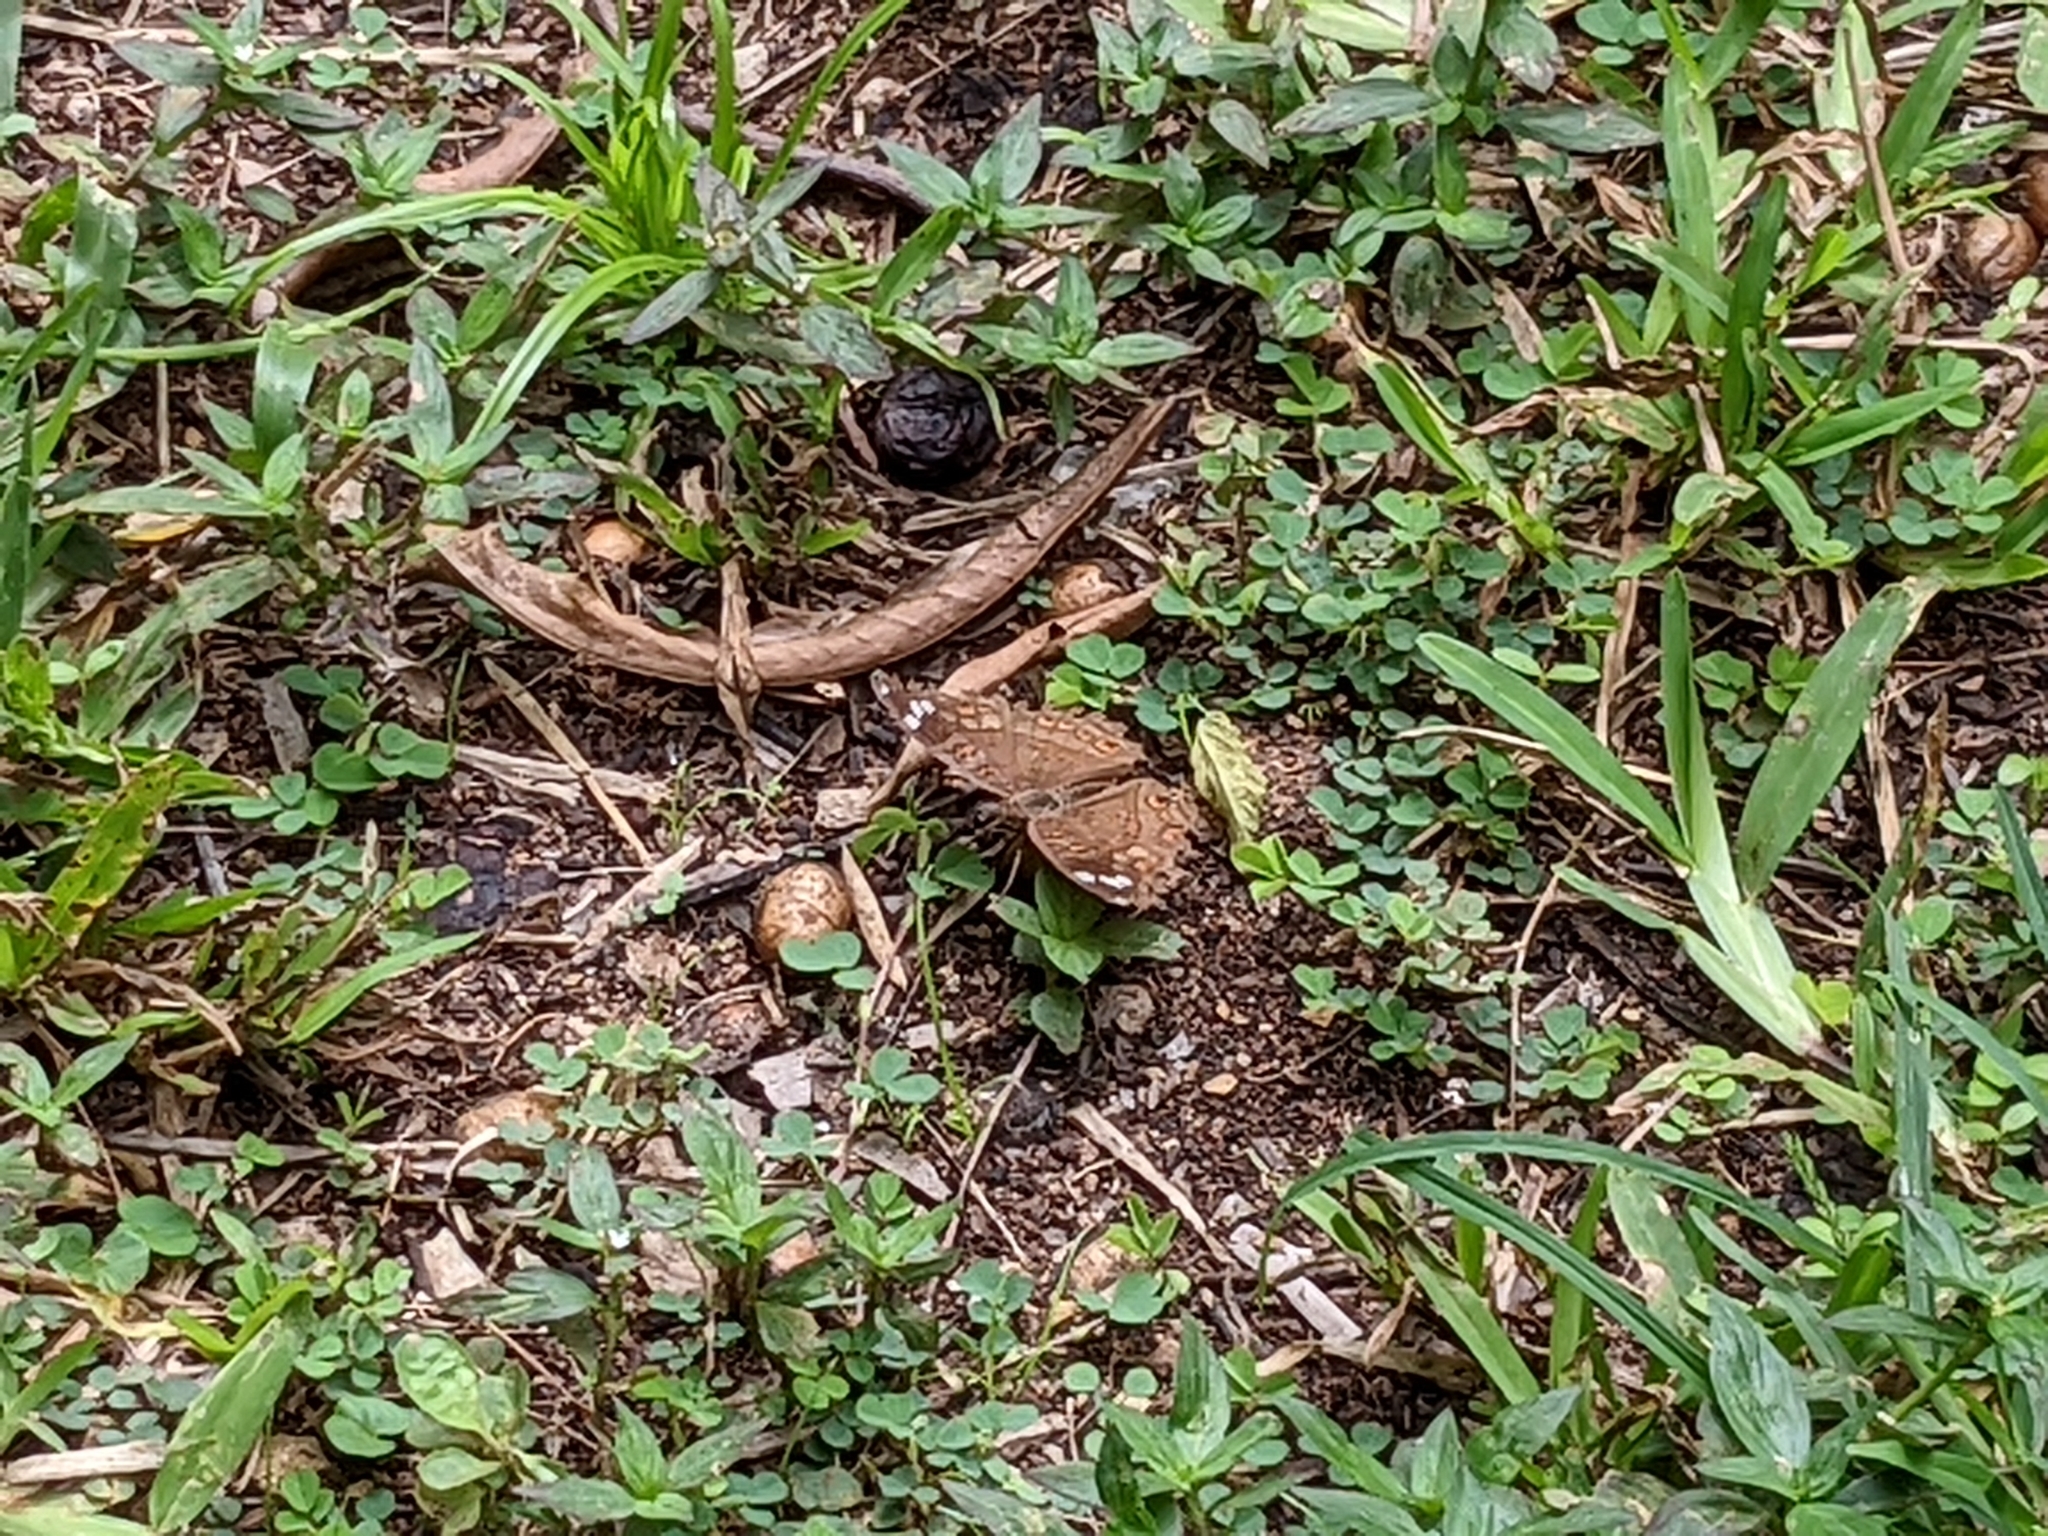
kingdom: Animalia
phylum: Arthropoda
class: Insecta
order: Lepidoptera
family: Nymphalidae
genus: Junonia
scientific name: Junonia natalica
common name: Brown pansy
